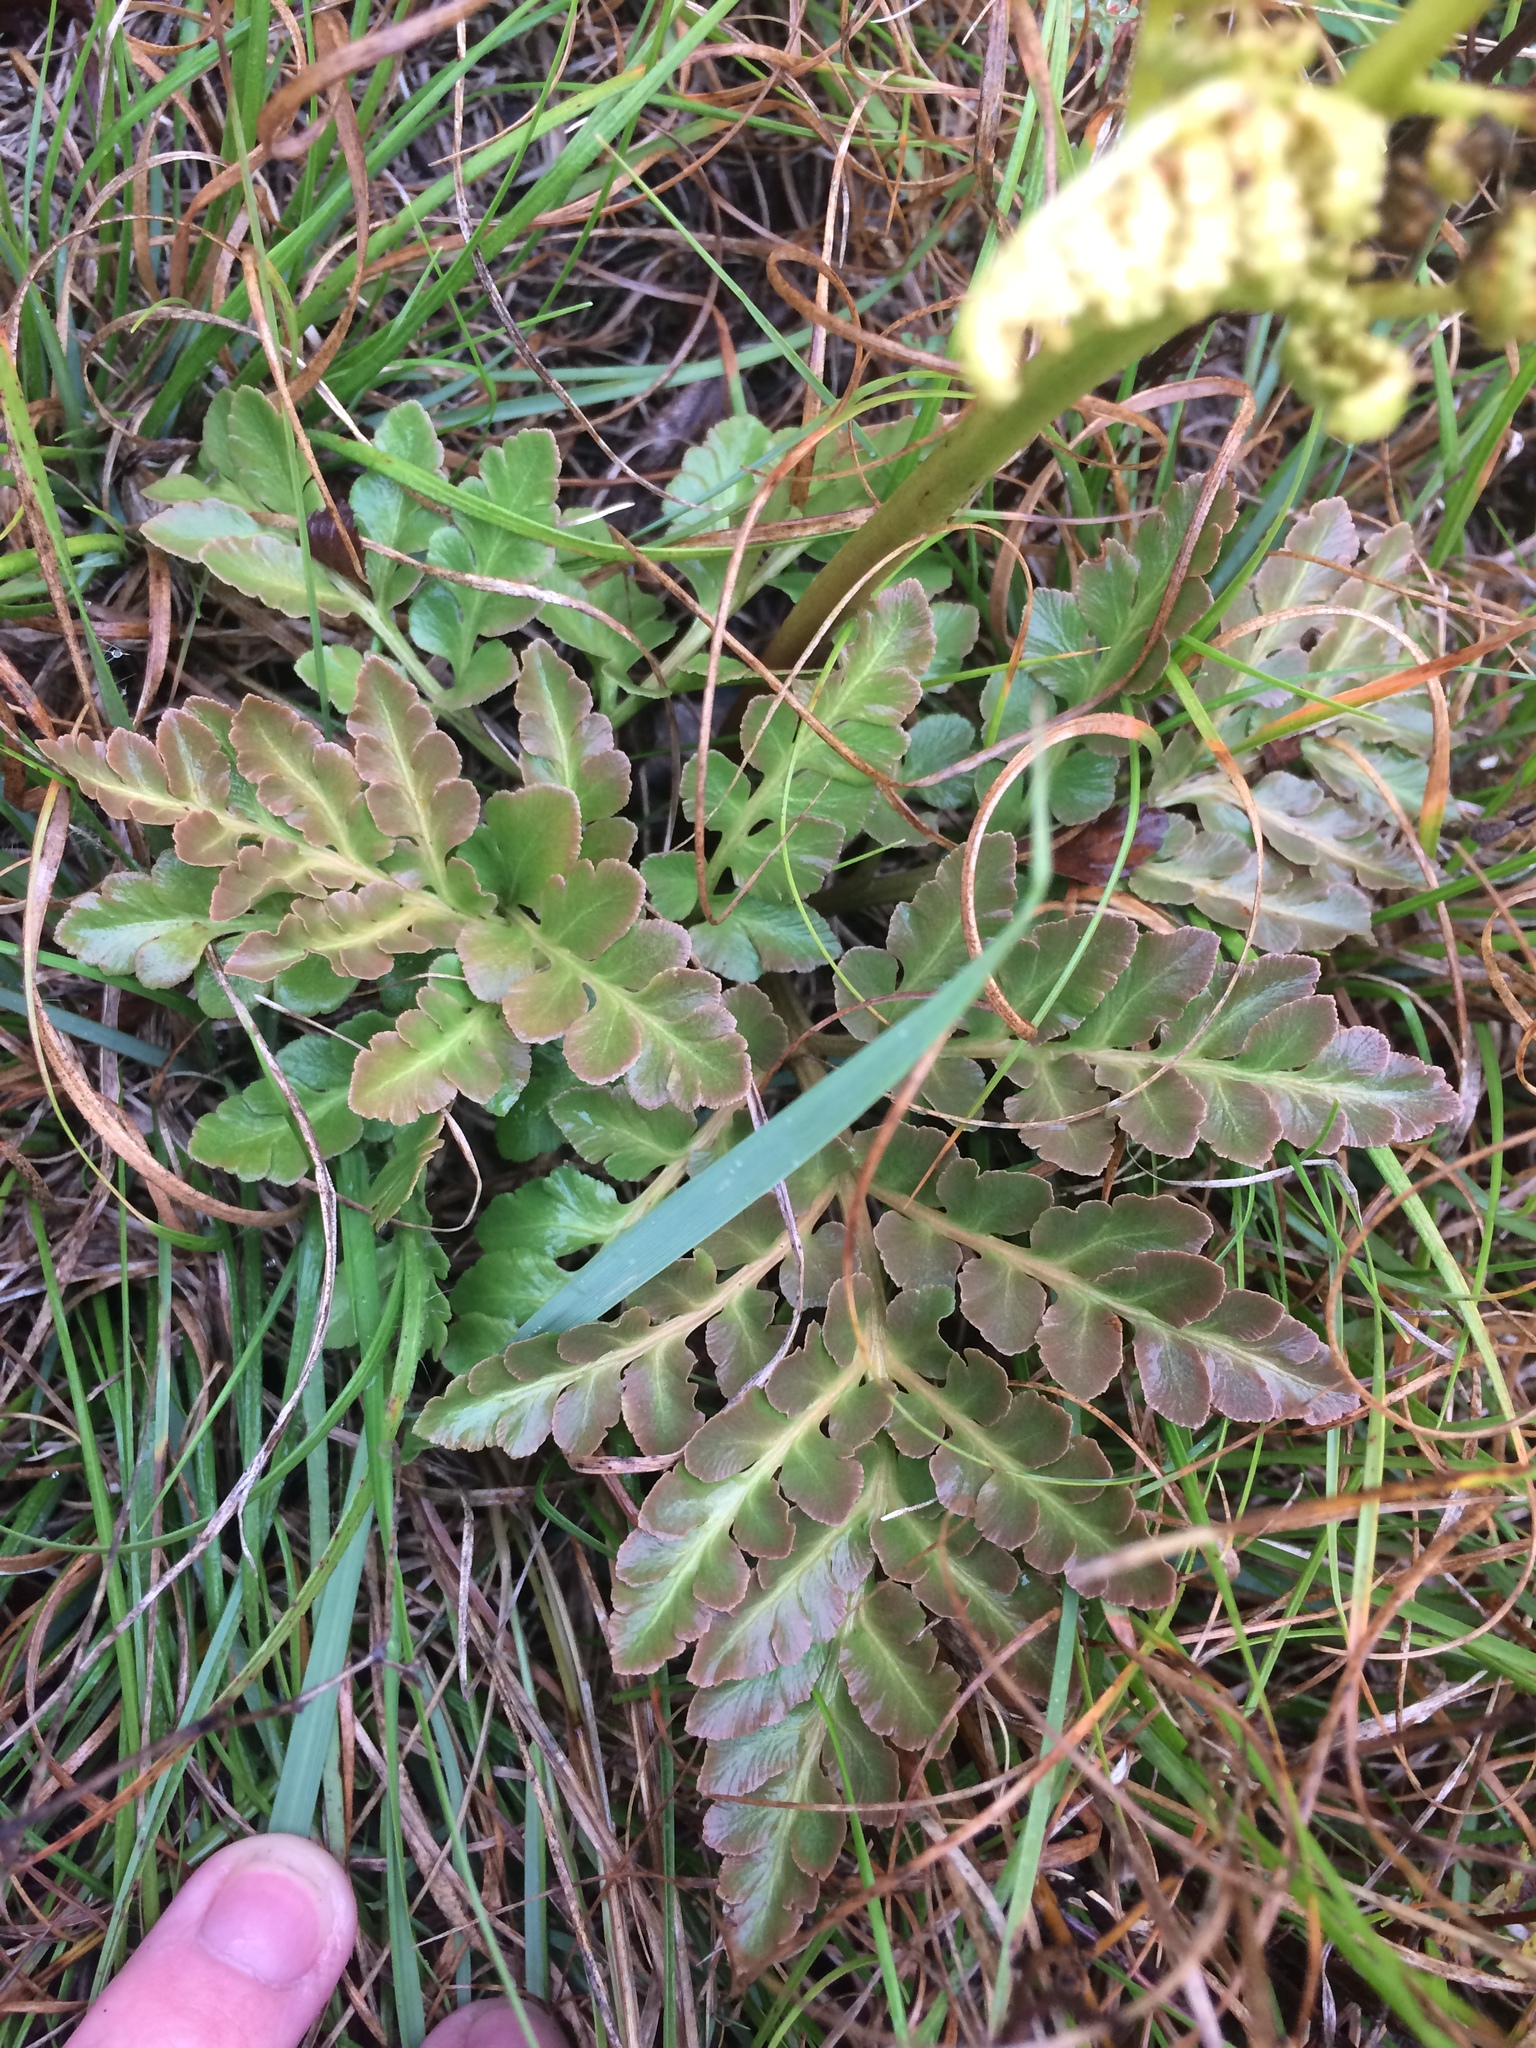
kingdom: Plantae
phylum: Tracheophyta
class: Polypodiopsida
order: Ophioglossales
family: Ophioglossaceae
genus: Sceptridium
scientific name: Sceptridium multifidum
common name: Leathery grape fern
